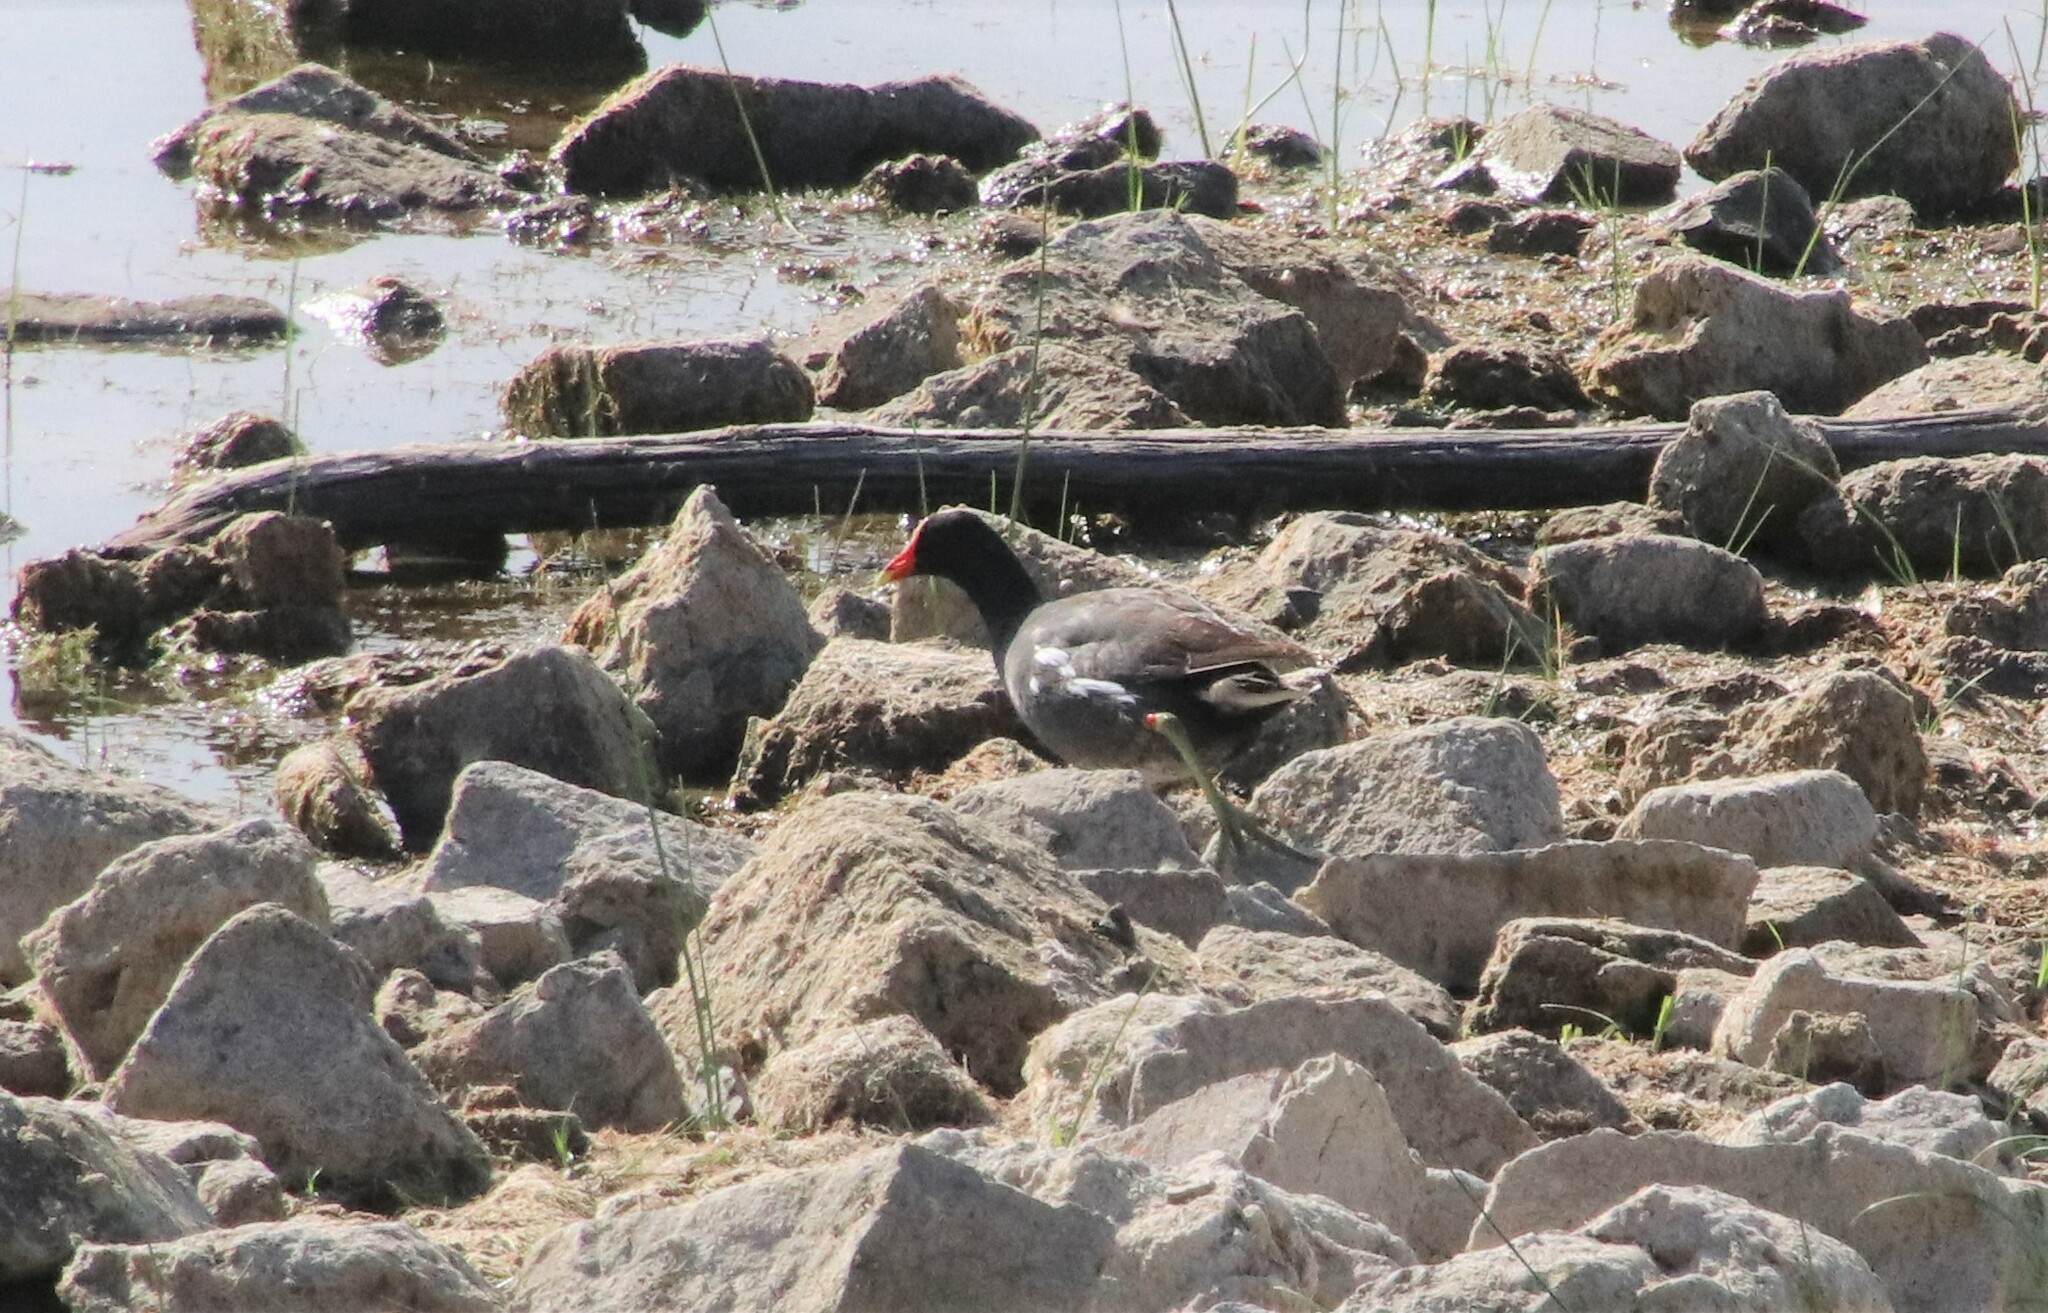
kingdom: Animalia
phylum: Chordata
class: Aves
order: Gruiformes
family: Rallidae
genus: Gallinula
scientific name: Gallinula chloropus
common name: Common moorhen
